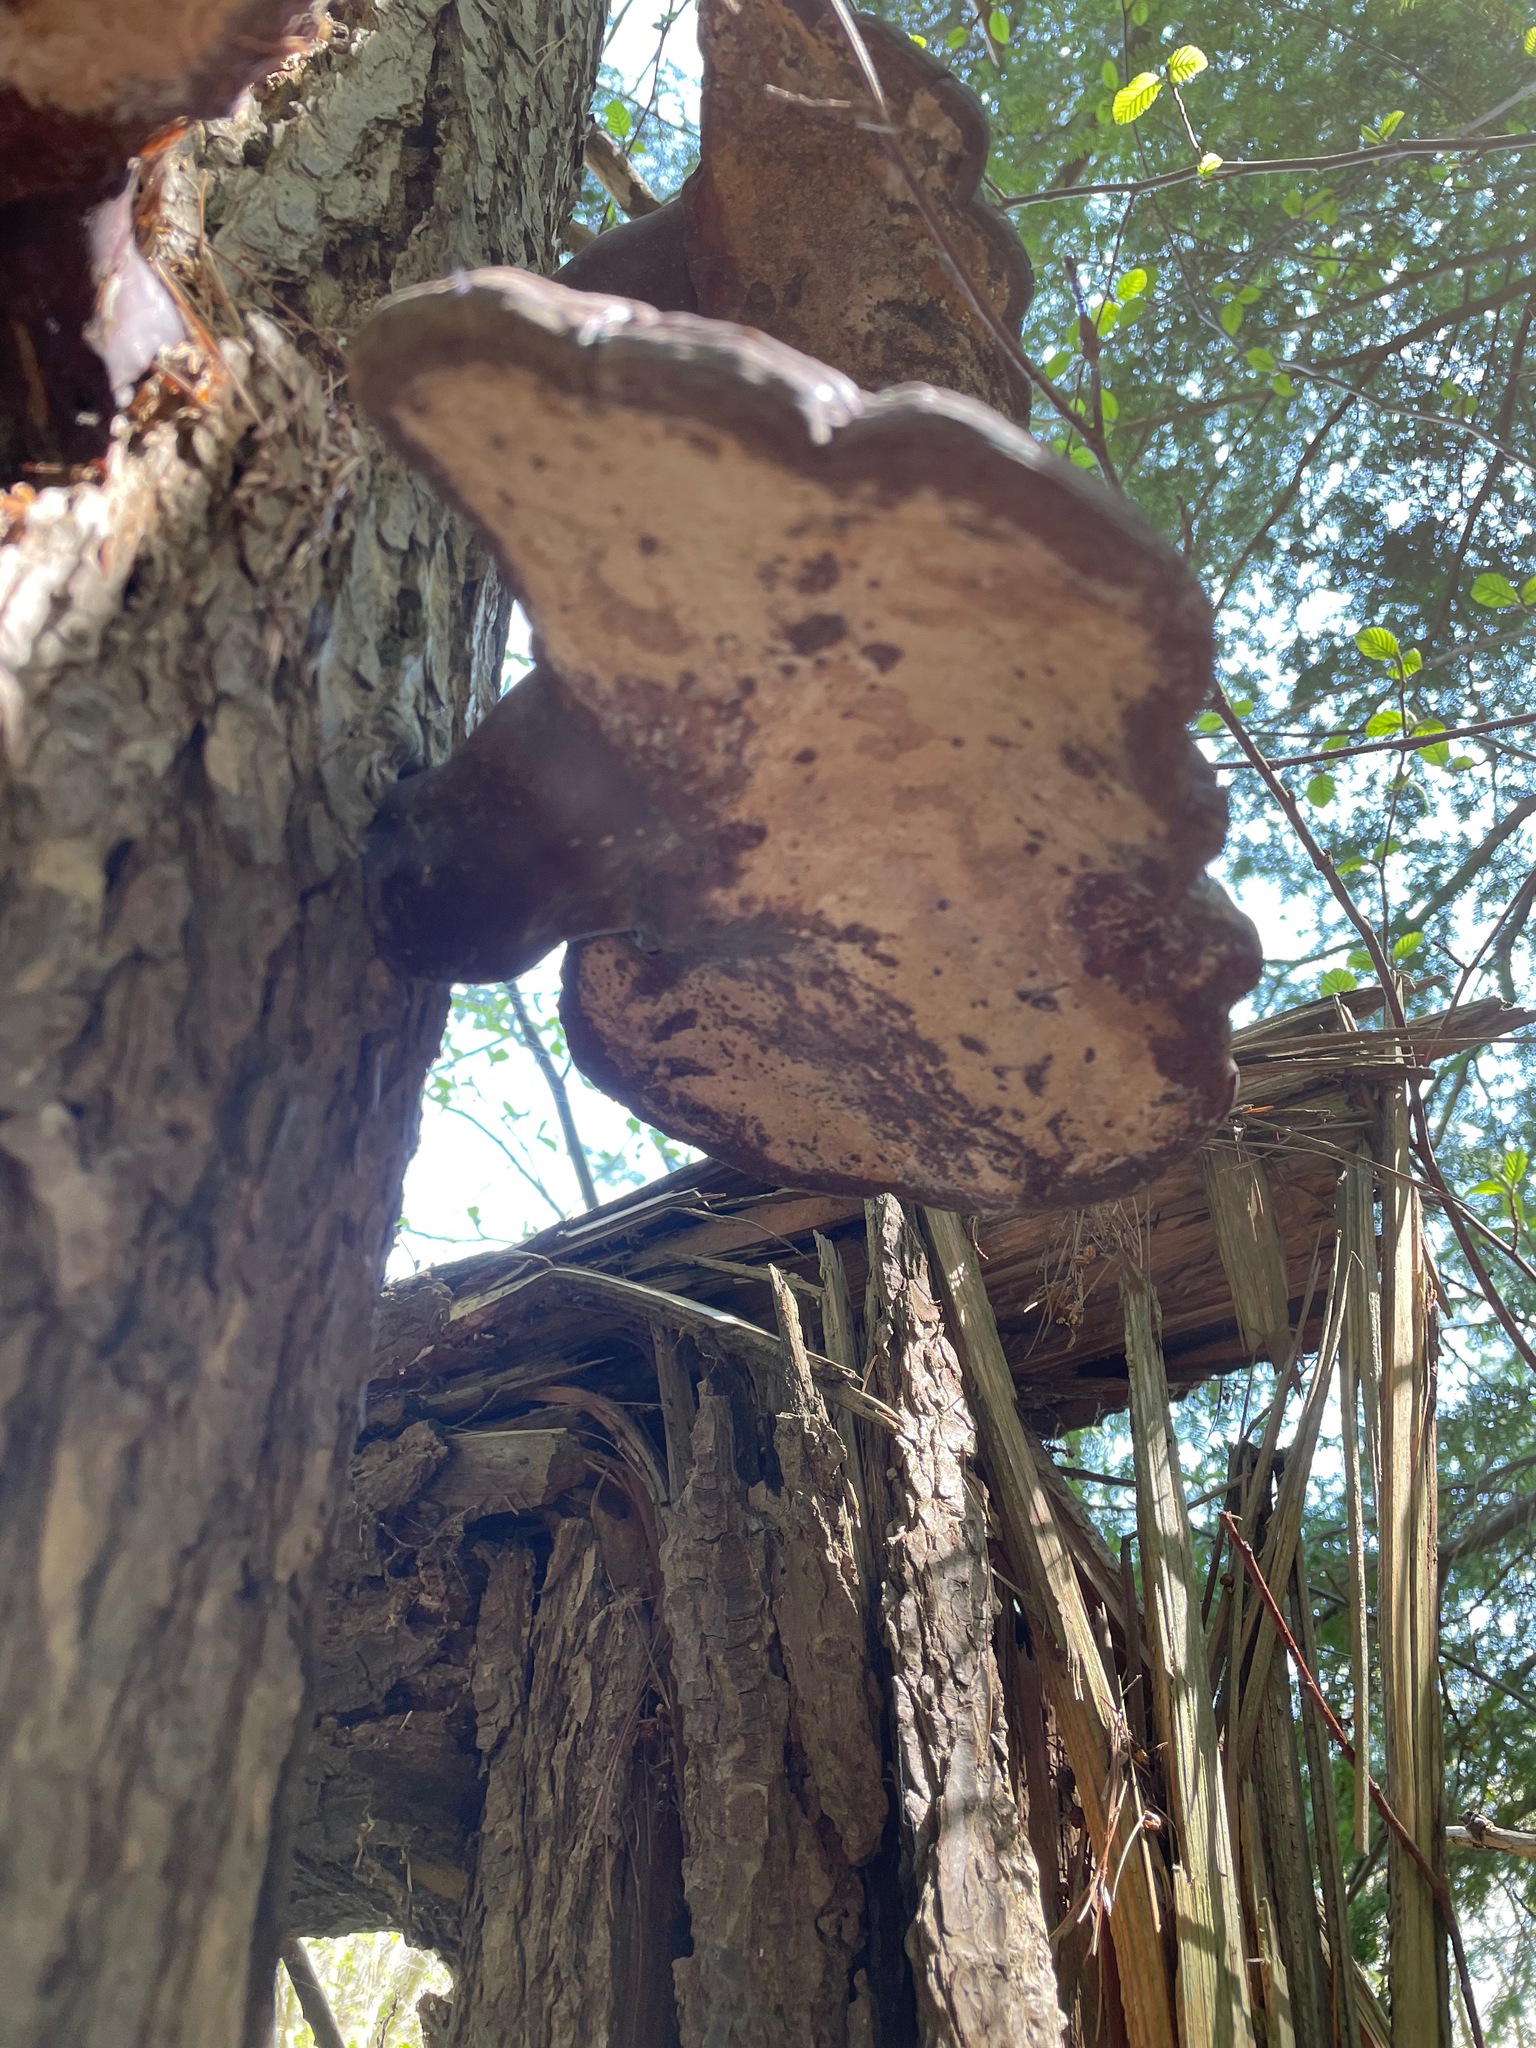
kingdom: Fungi
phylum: Basidiomycota
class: Agaricomycetes
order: Polyporales
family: Polyporaceae
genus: Ganoderma
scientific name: Ganoderma tsugae
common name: Hemlock varnish shelf
